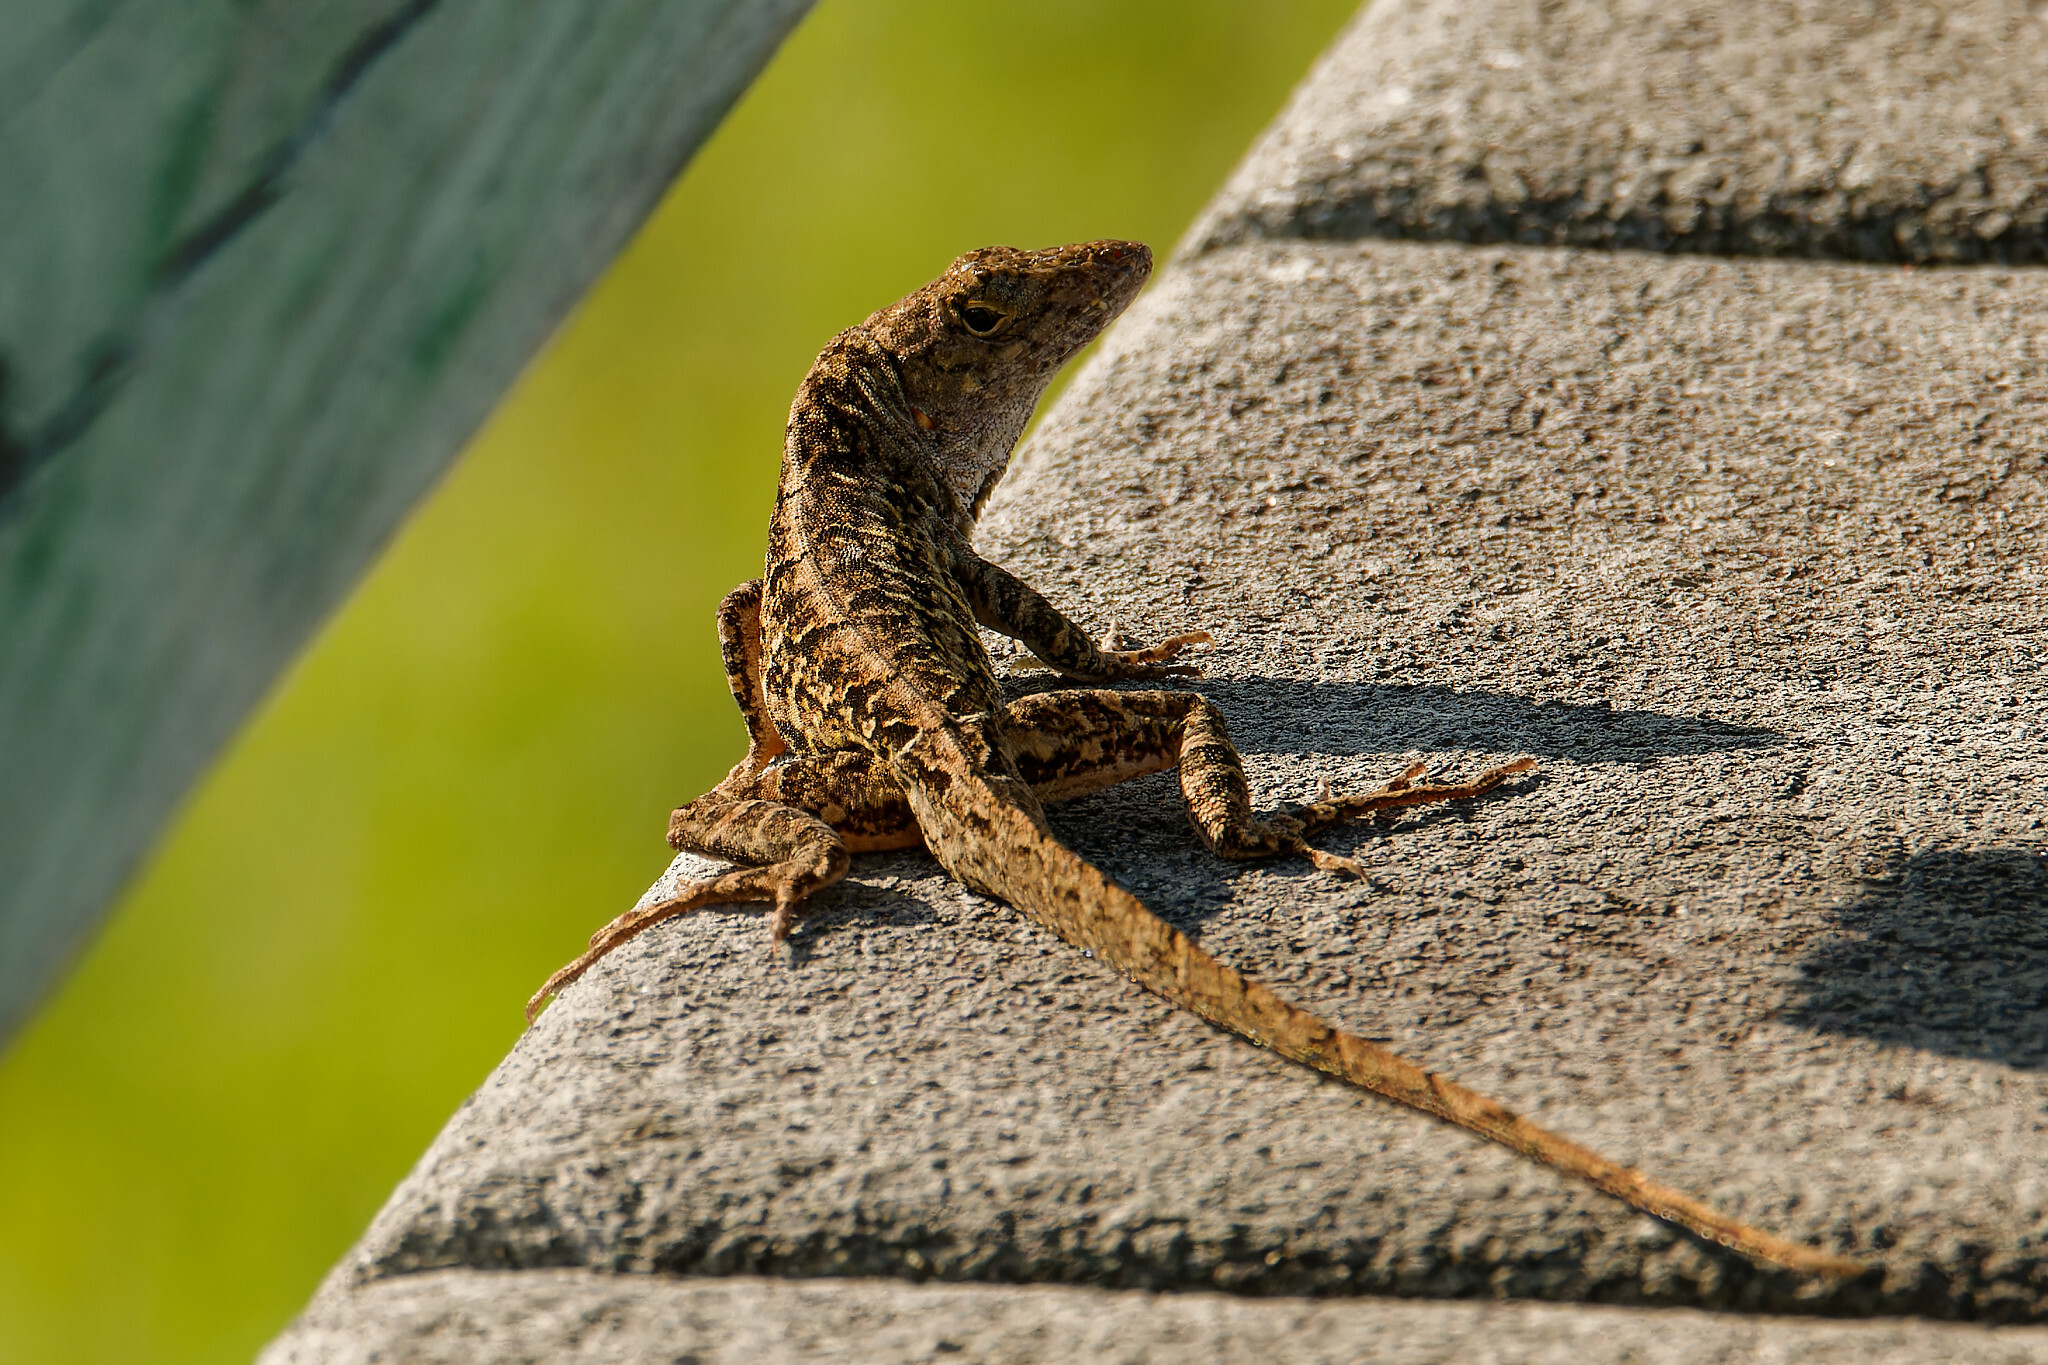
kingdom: Animalia
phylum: Chordata
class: Squamata
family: Dactyloidae
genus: Anolis
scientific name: Anolis sagrei
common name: Brown anole
